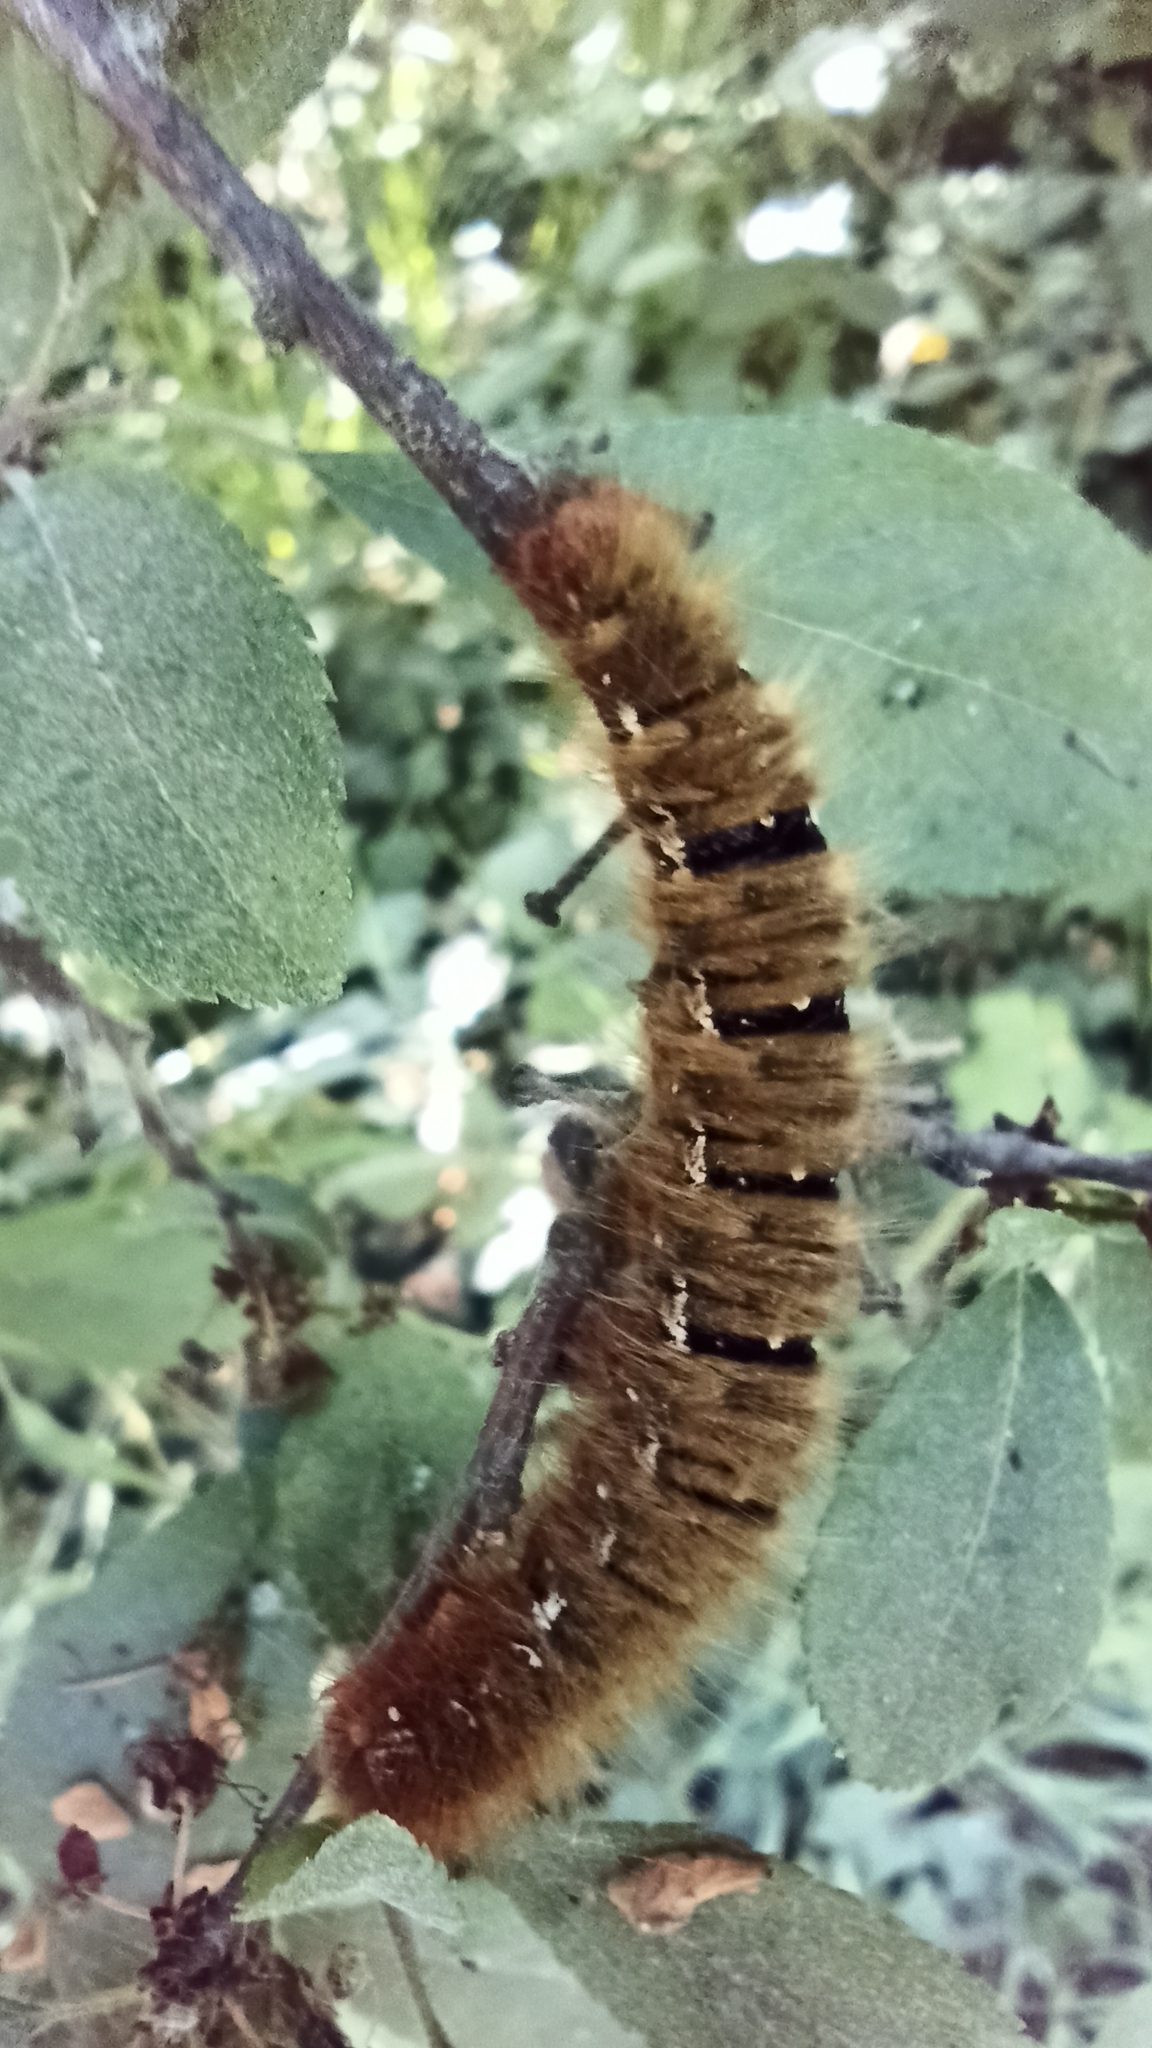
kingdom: Animalia
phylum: Arthropoda
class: Insecta
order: Lepidoptera
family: Lasiocampidae
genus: Lasiocampa
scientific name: Lasiocampa quercus
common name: Oak eggar
